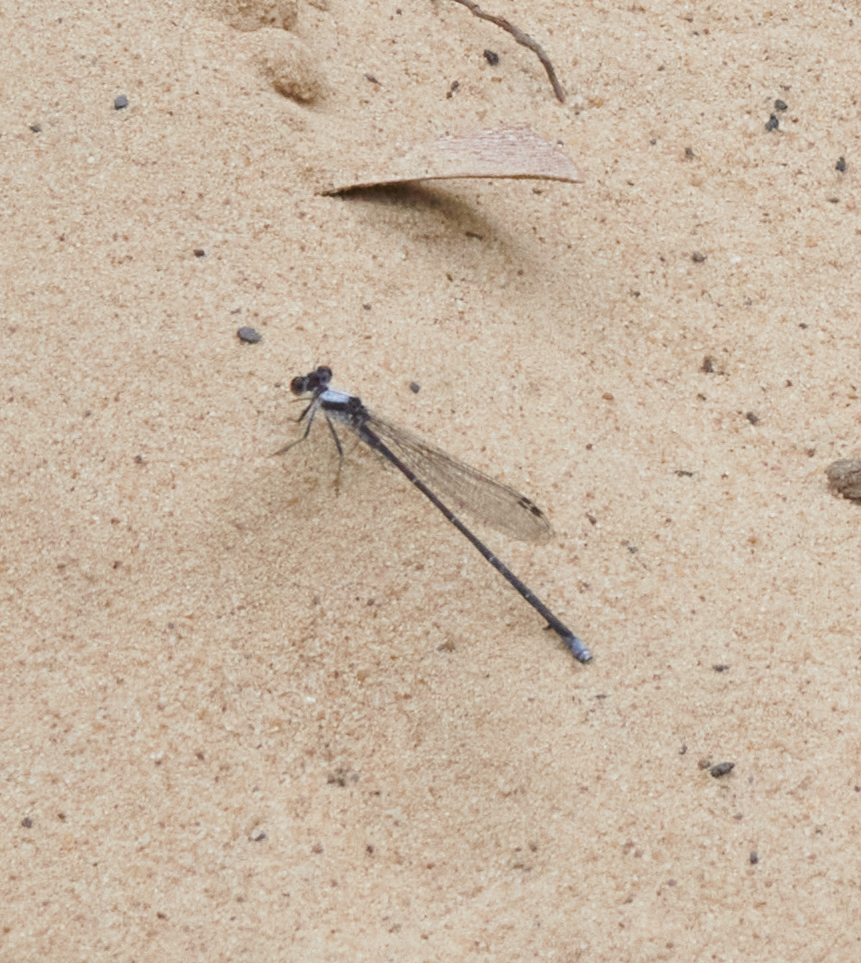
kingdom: Animalia
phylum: Arthropoda
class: Insecta
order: Odonata
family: Coenagrionidae
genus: Argia
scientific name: Argia moesta
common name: Powdered dancer
